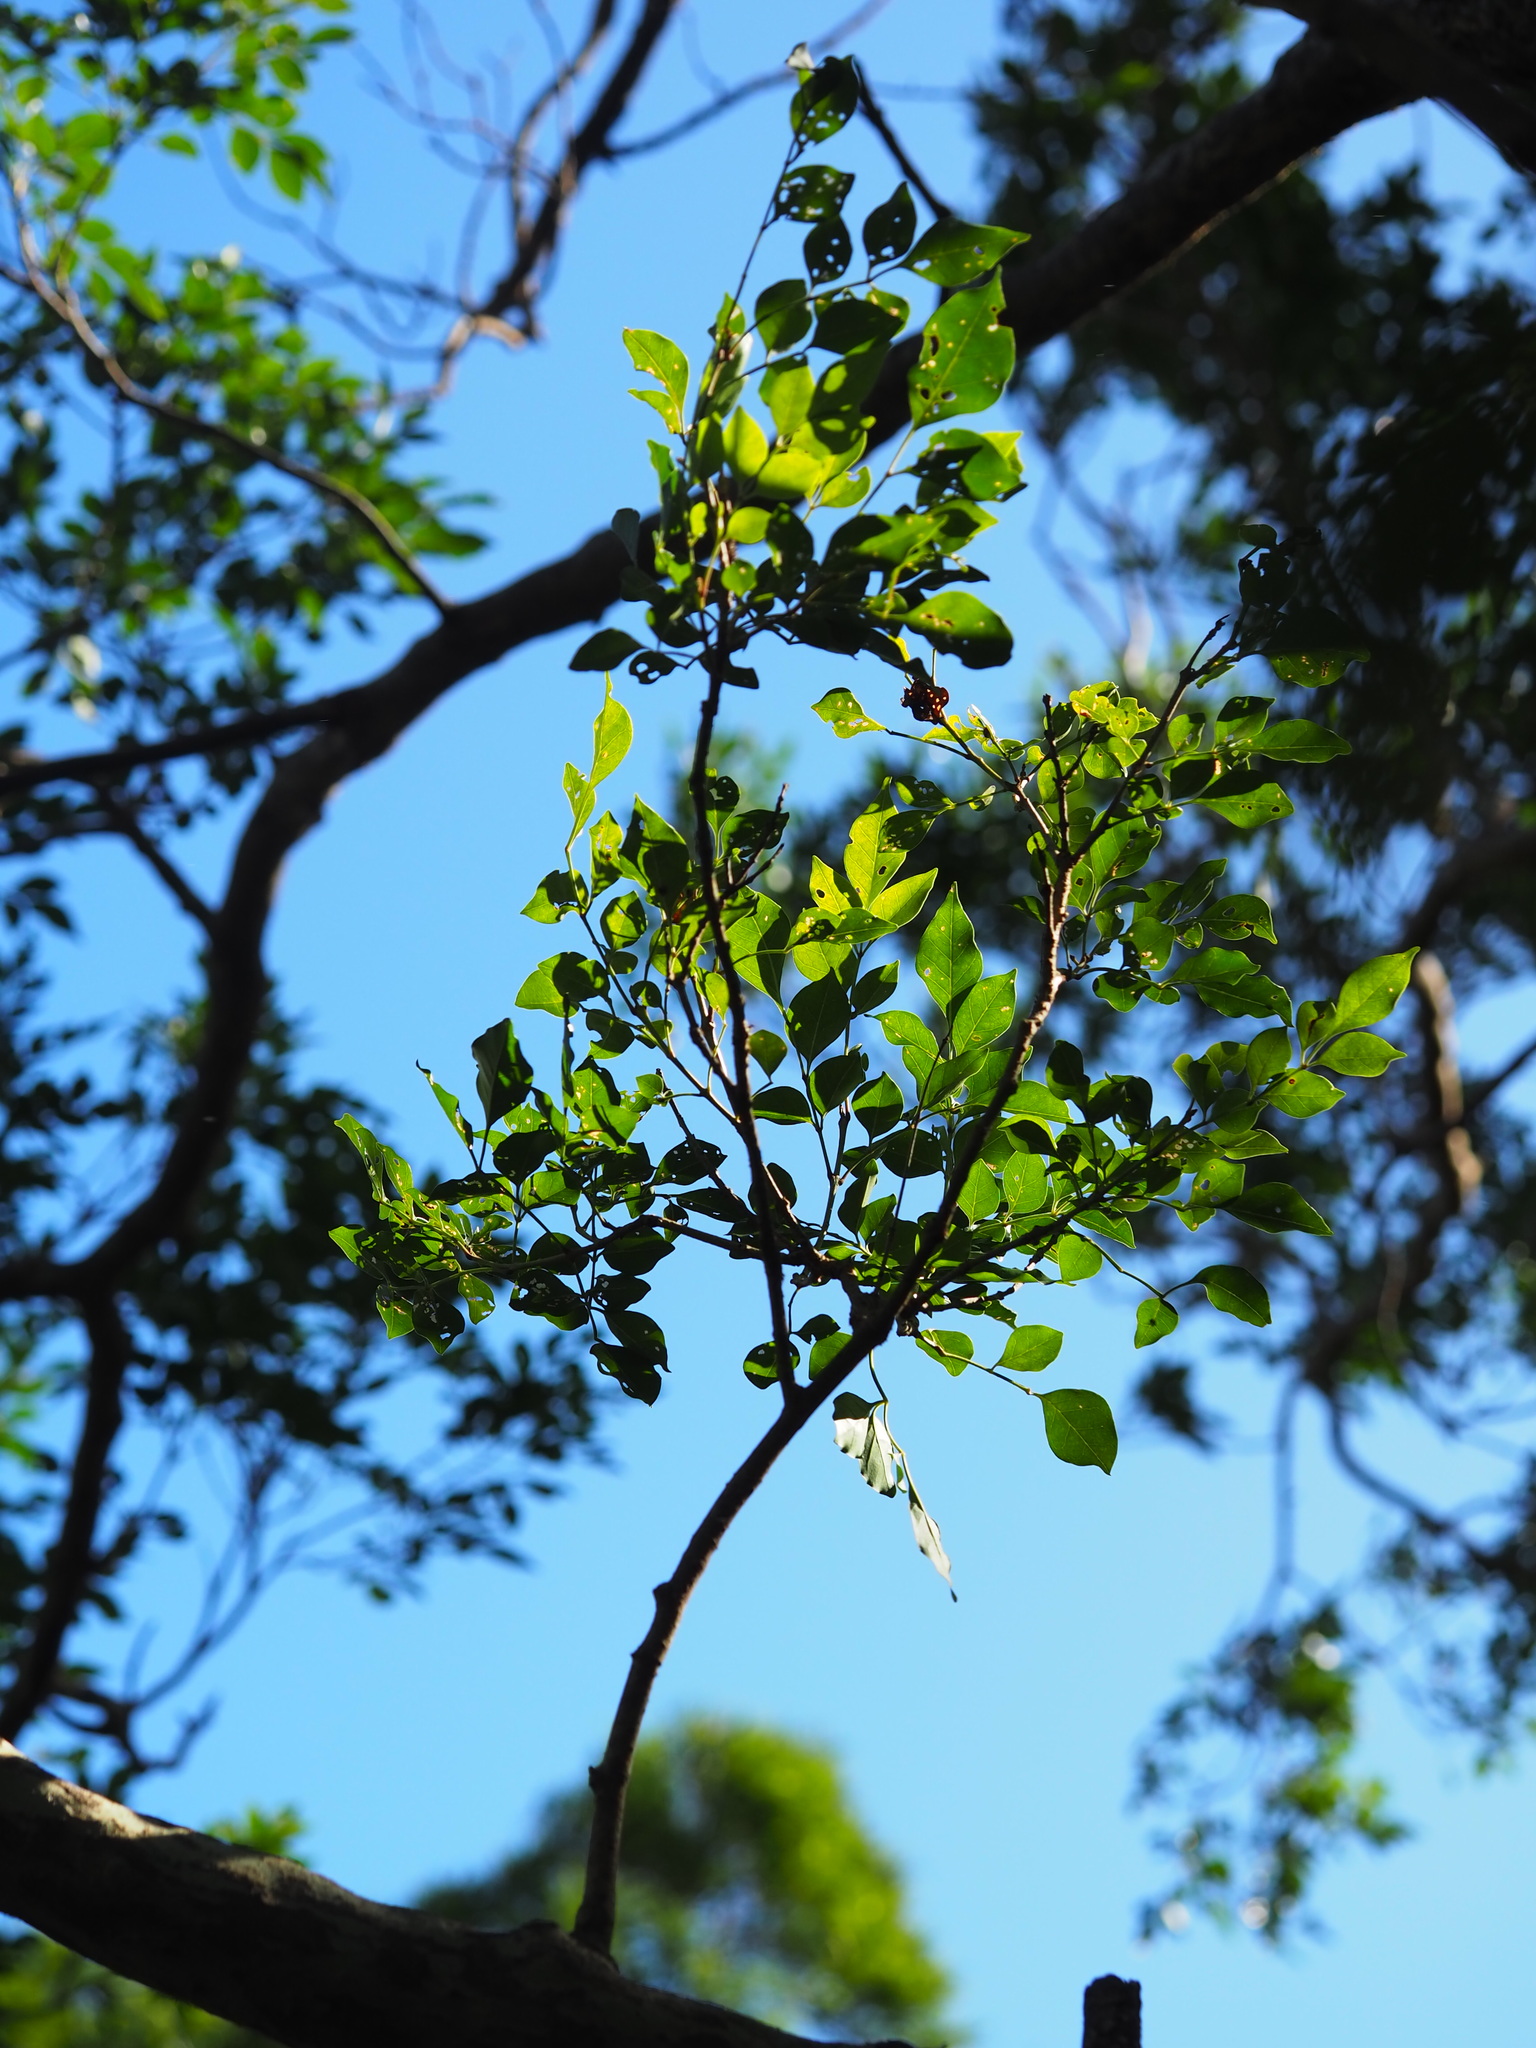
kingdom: Plantae
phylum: Tracheophyta
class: Magnoliopsida
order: Lamiales
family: Oleaceae
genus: Fraxinus
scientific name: Fraxinus griffithii
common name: Himalayan ash
